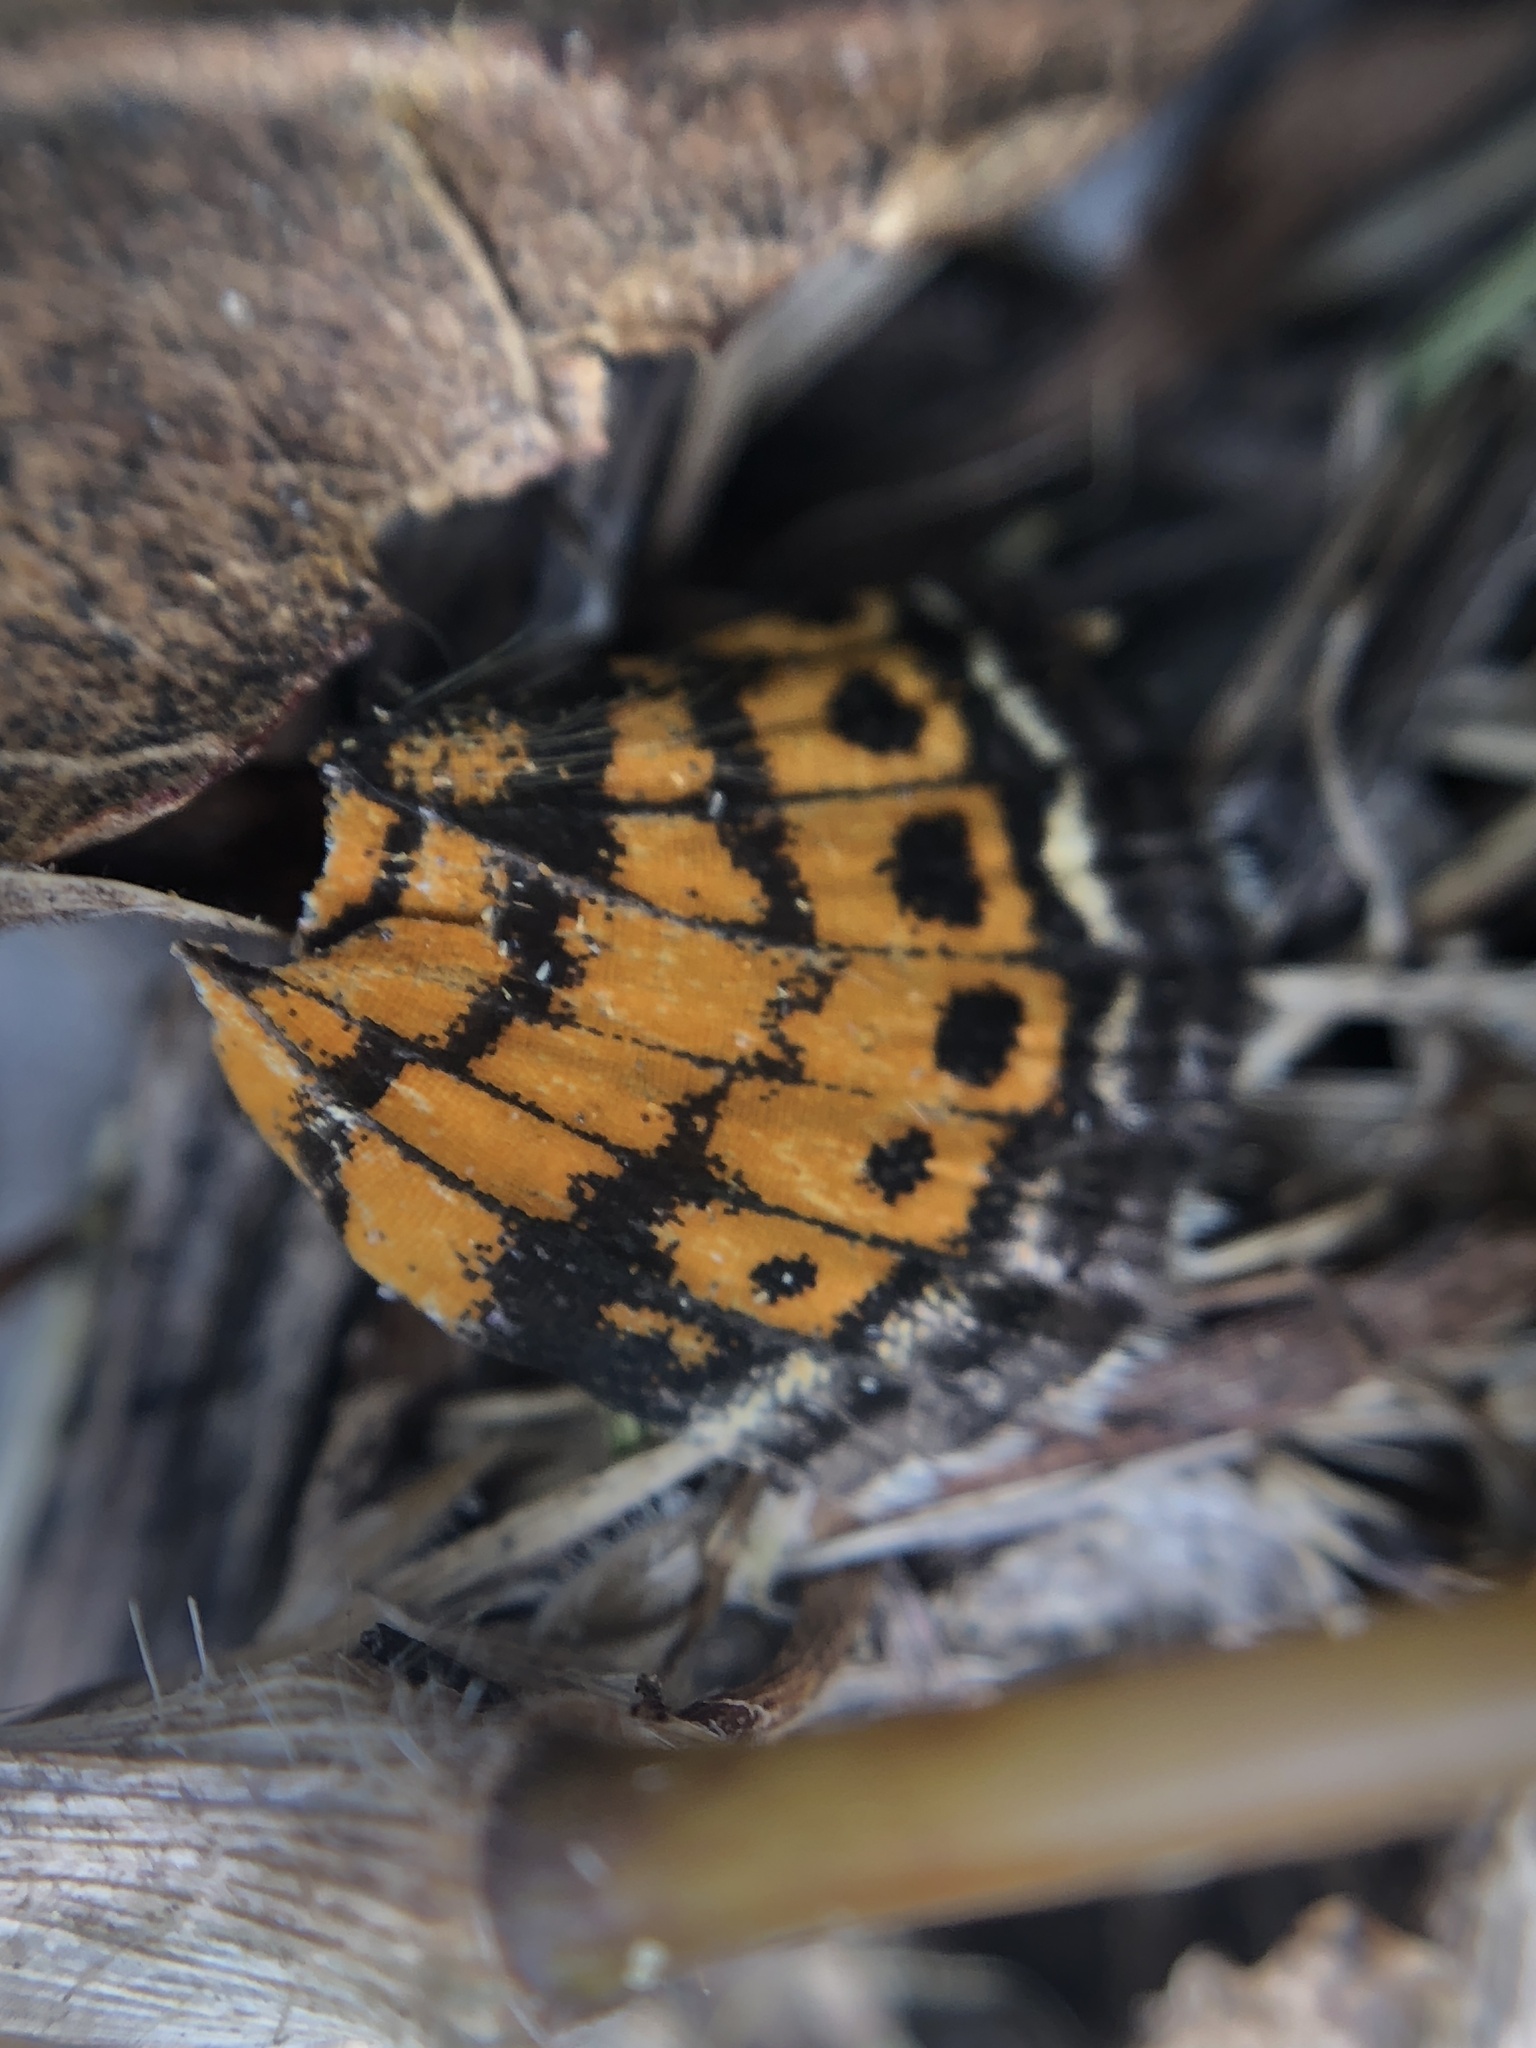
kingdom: Animalia
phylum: Arthropoda
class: Insecta
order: Lepidoptera
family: Nymphalidae
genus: Phyciodes
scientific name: Phyciodes phaon
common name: Phaon crescent
